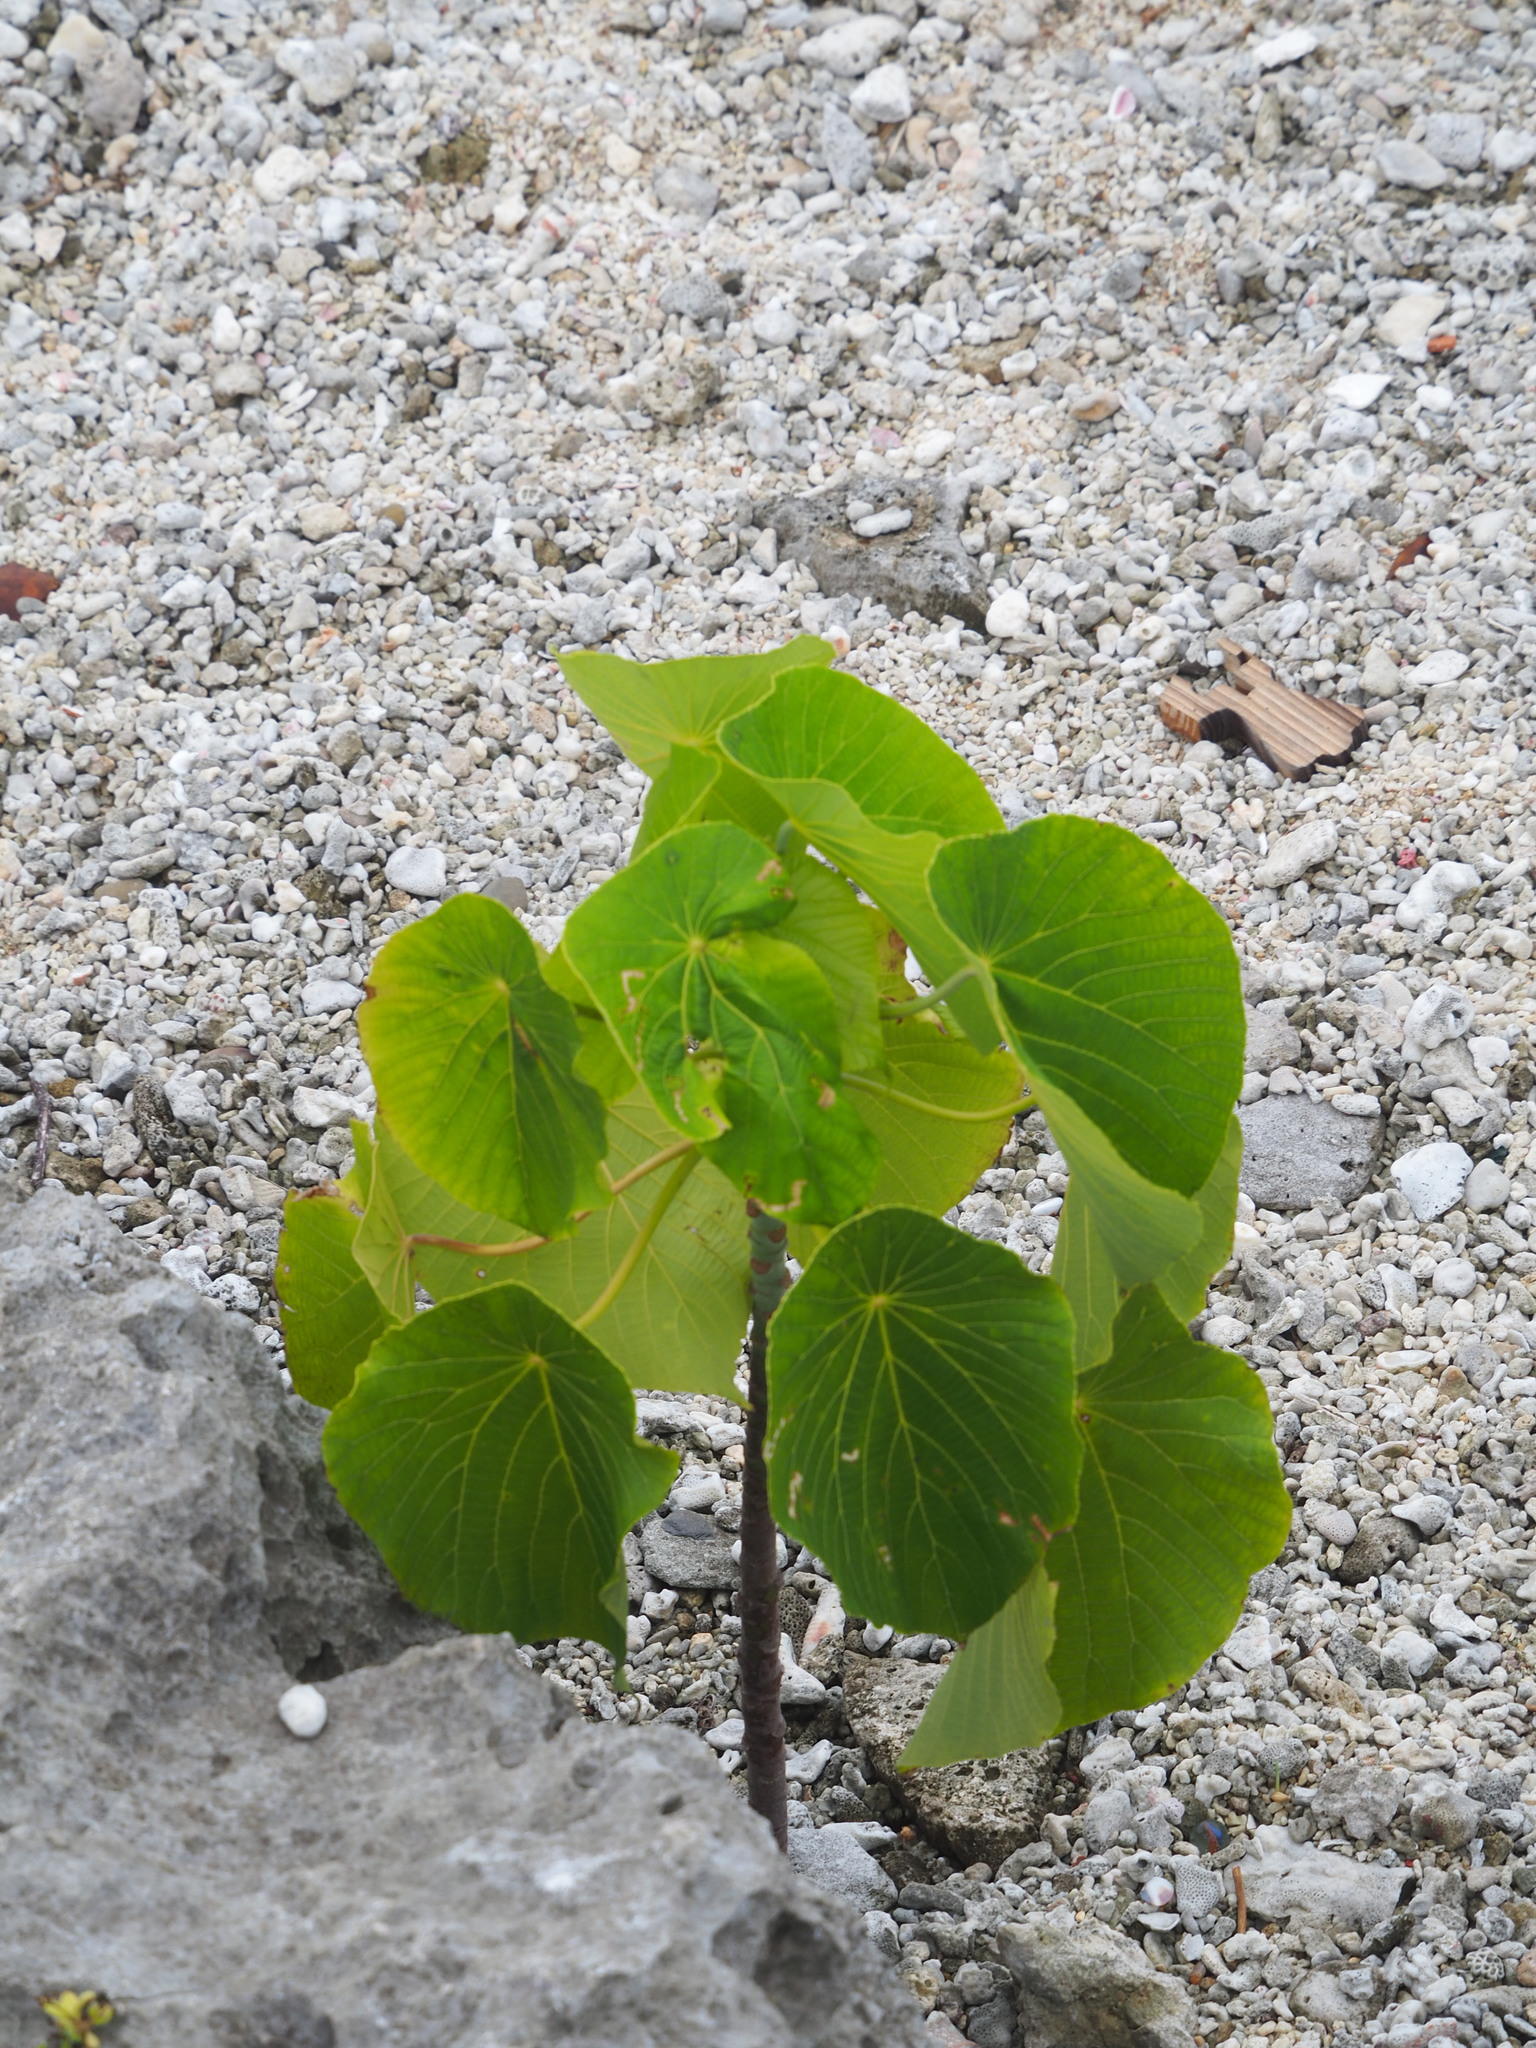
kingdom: Plantae
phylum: Tracheophyta
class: Magnoliopsida
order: Malpighiales
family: Euphorbiaceae
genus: Macaranga
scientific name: Macaranga tanarius
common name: Parasol leaf tree
